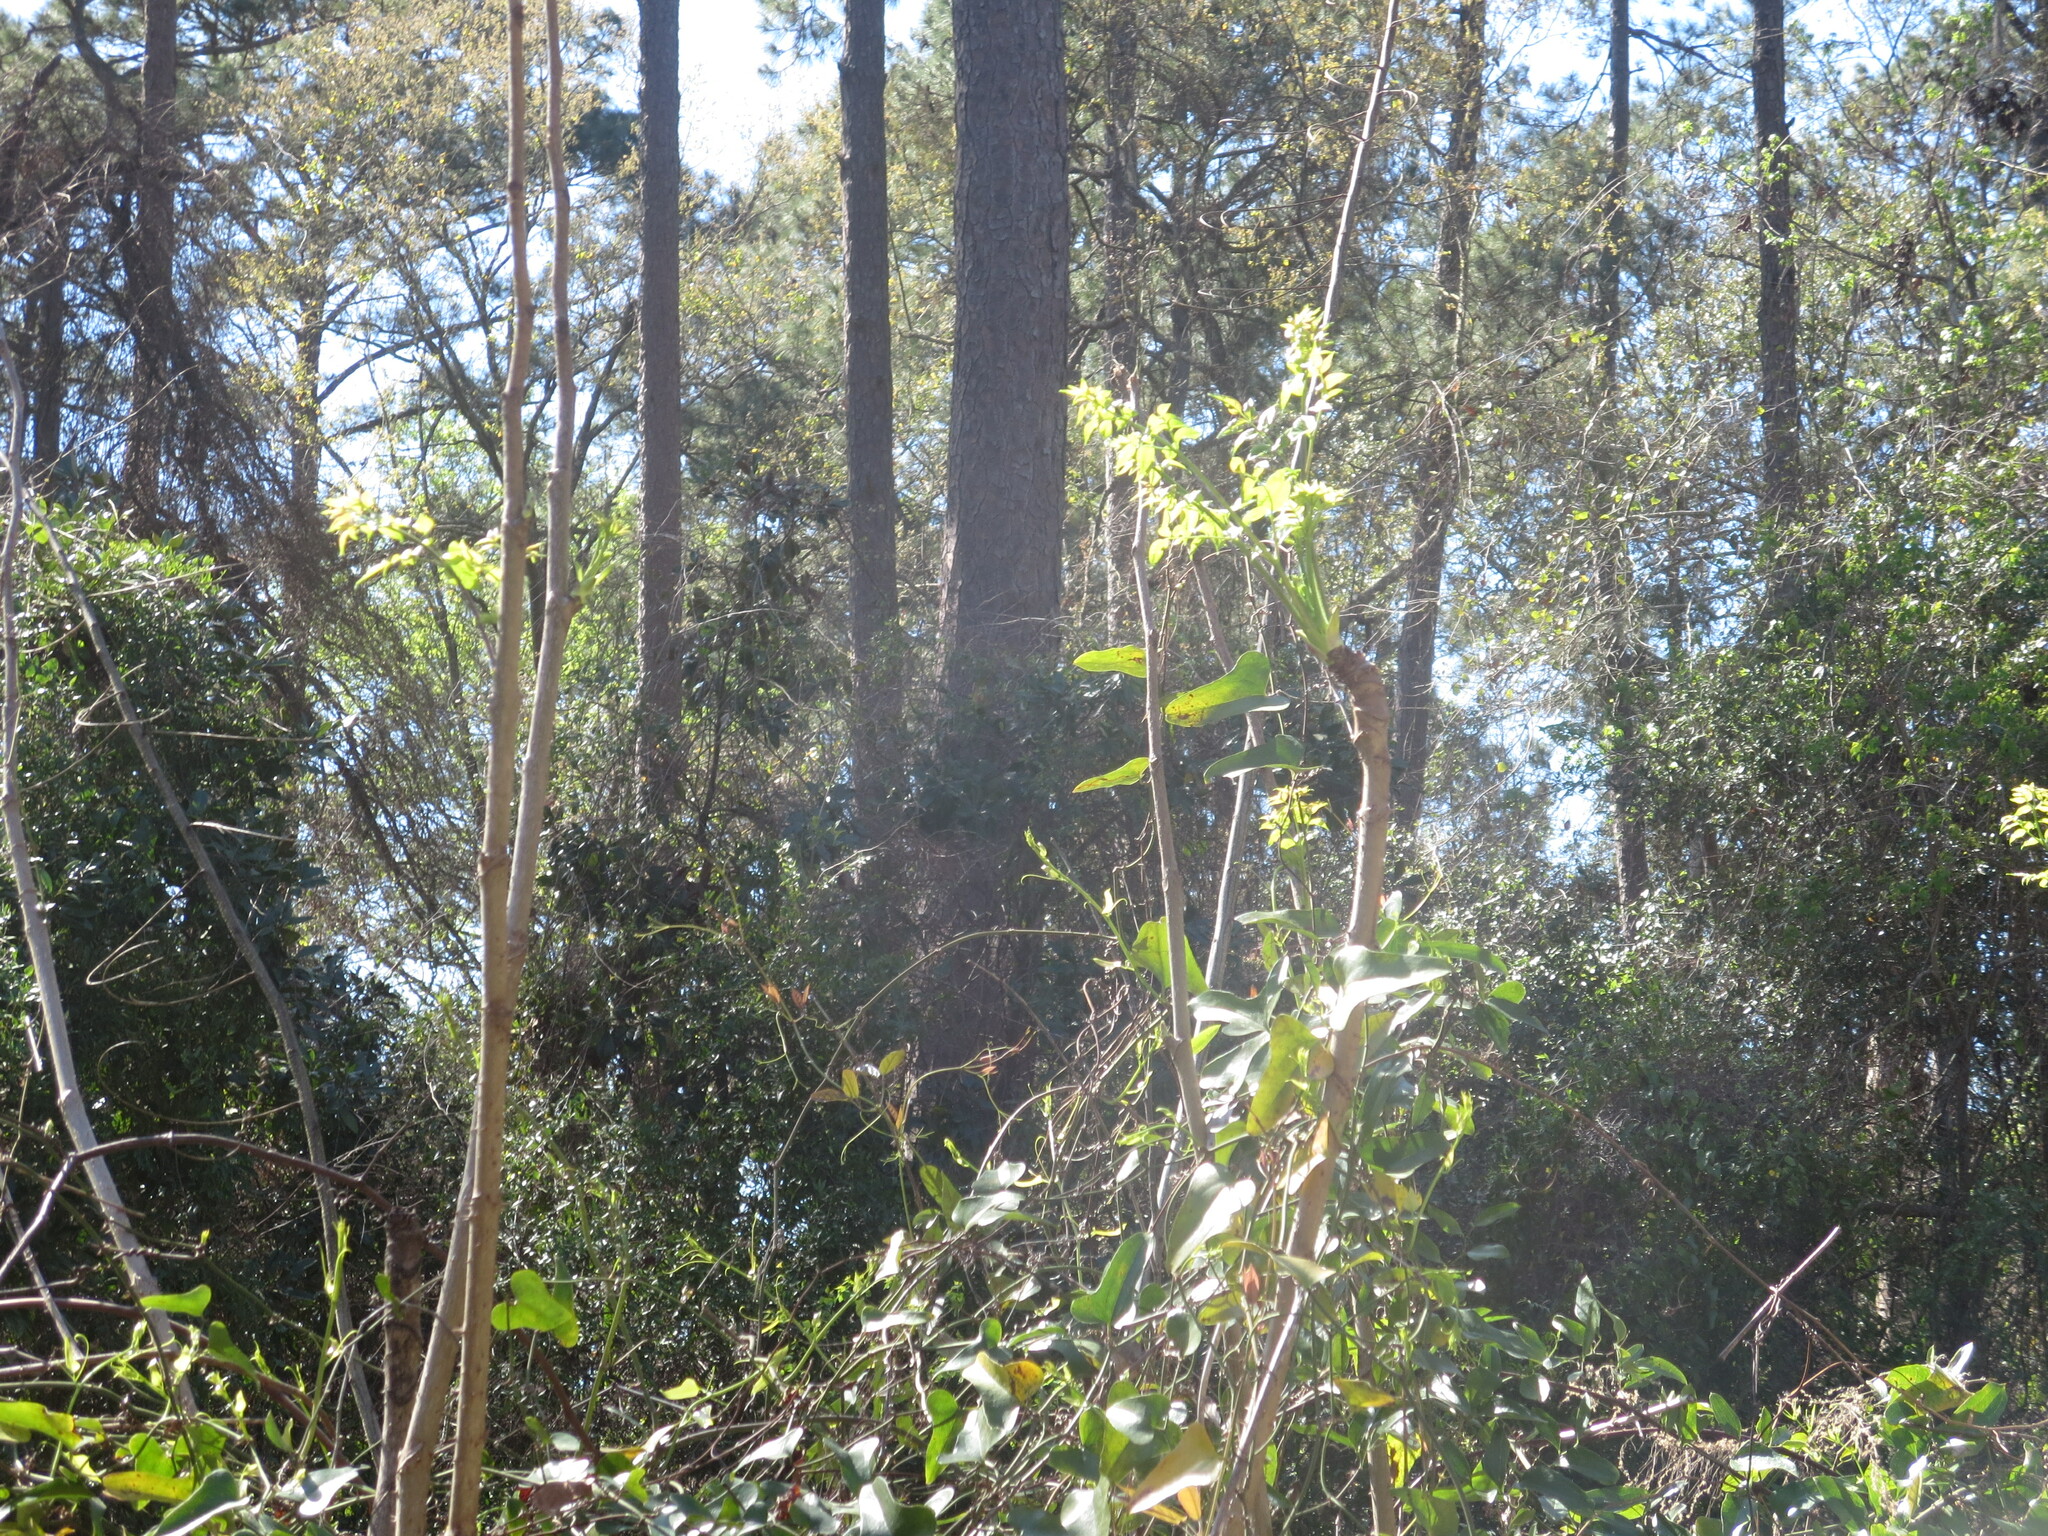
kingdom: Plantae
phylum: Tracheophyta
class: Magnoliopsida
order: Apiales
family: Araliaceae
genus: Aralia
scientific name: Aralia spinosa
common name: Hercules'-club
